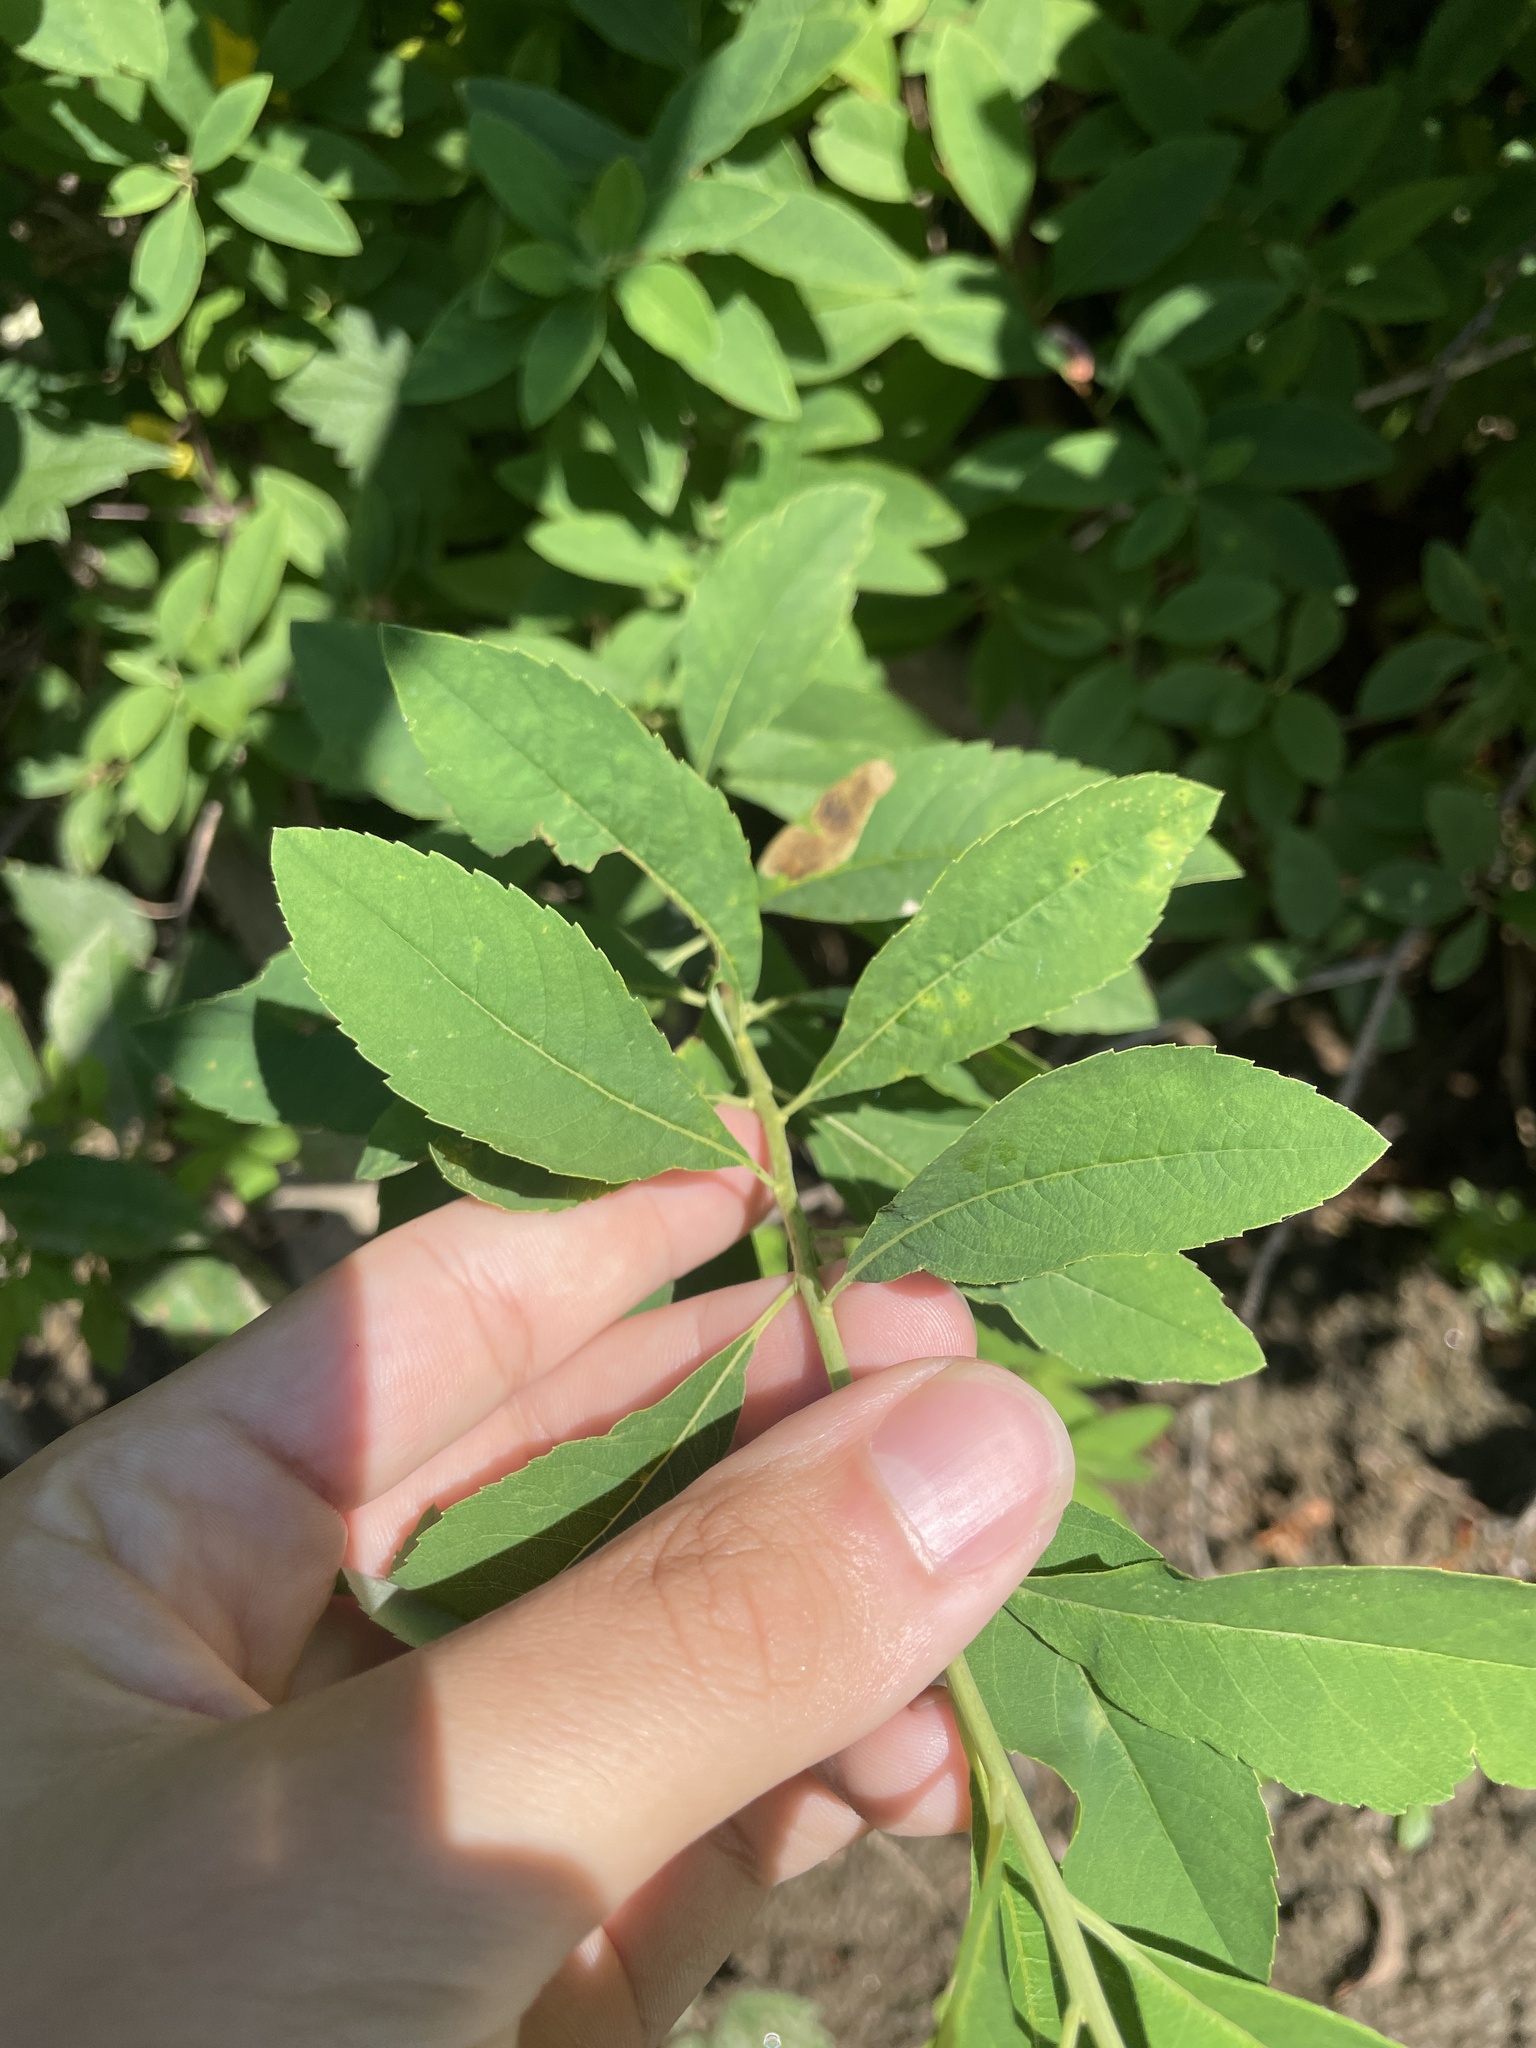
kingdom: Plantae
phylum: Tracheophyta
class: Magnoliopsida
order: Rosales
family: Rosaceae
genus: Spiraea
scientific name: Spiraea virginiana
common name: Virginia spiraea
